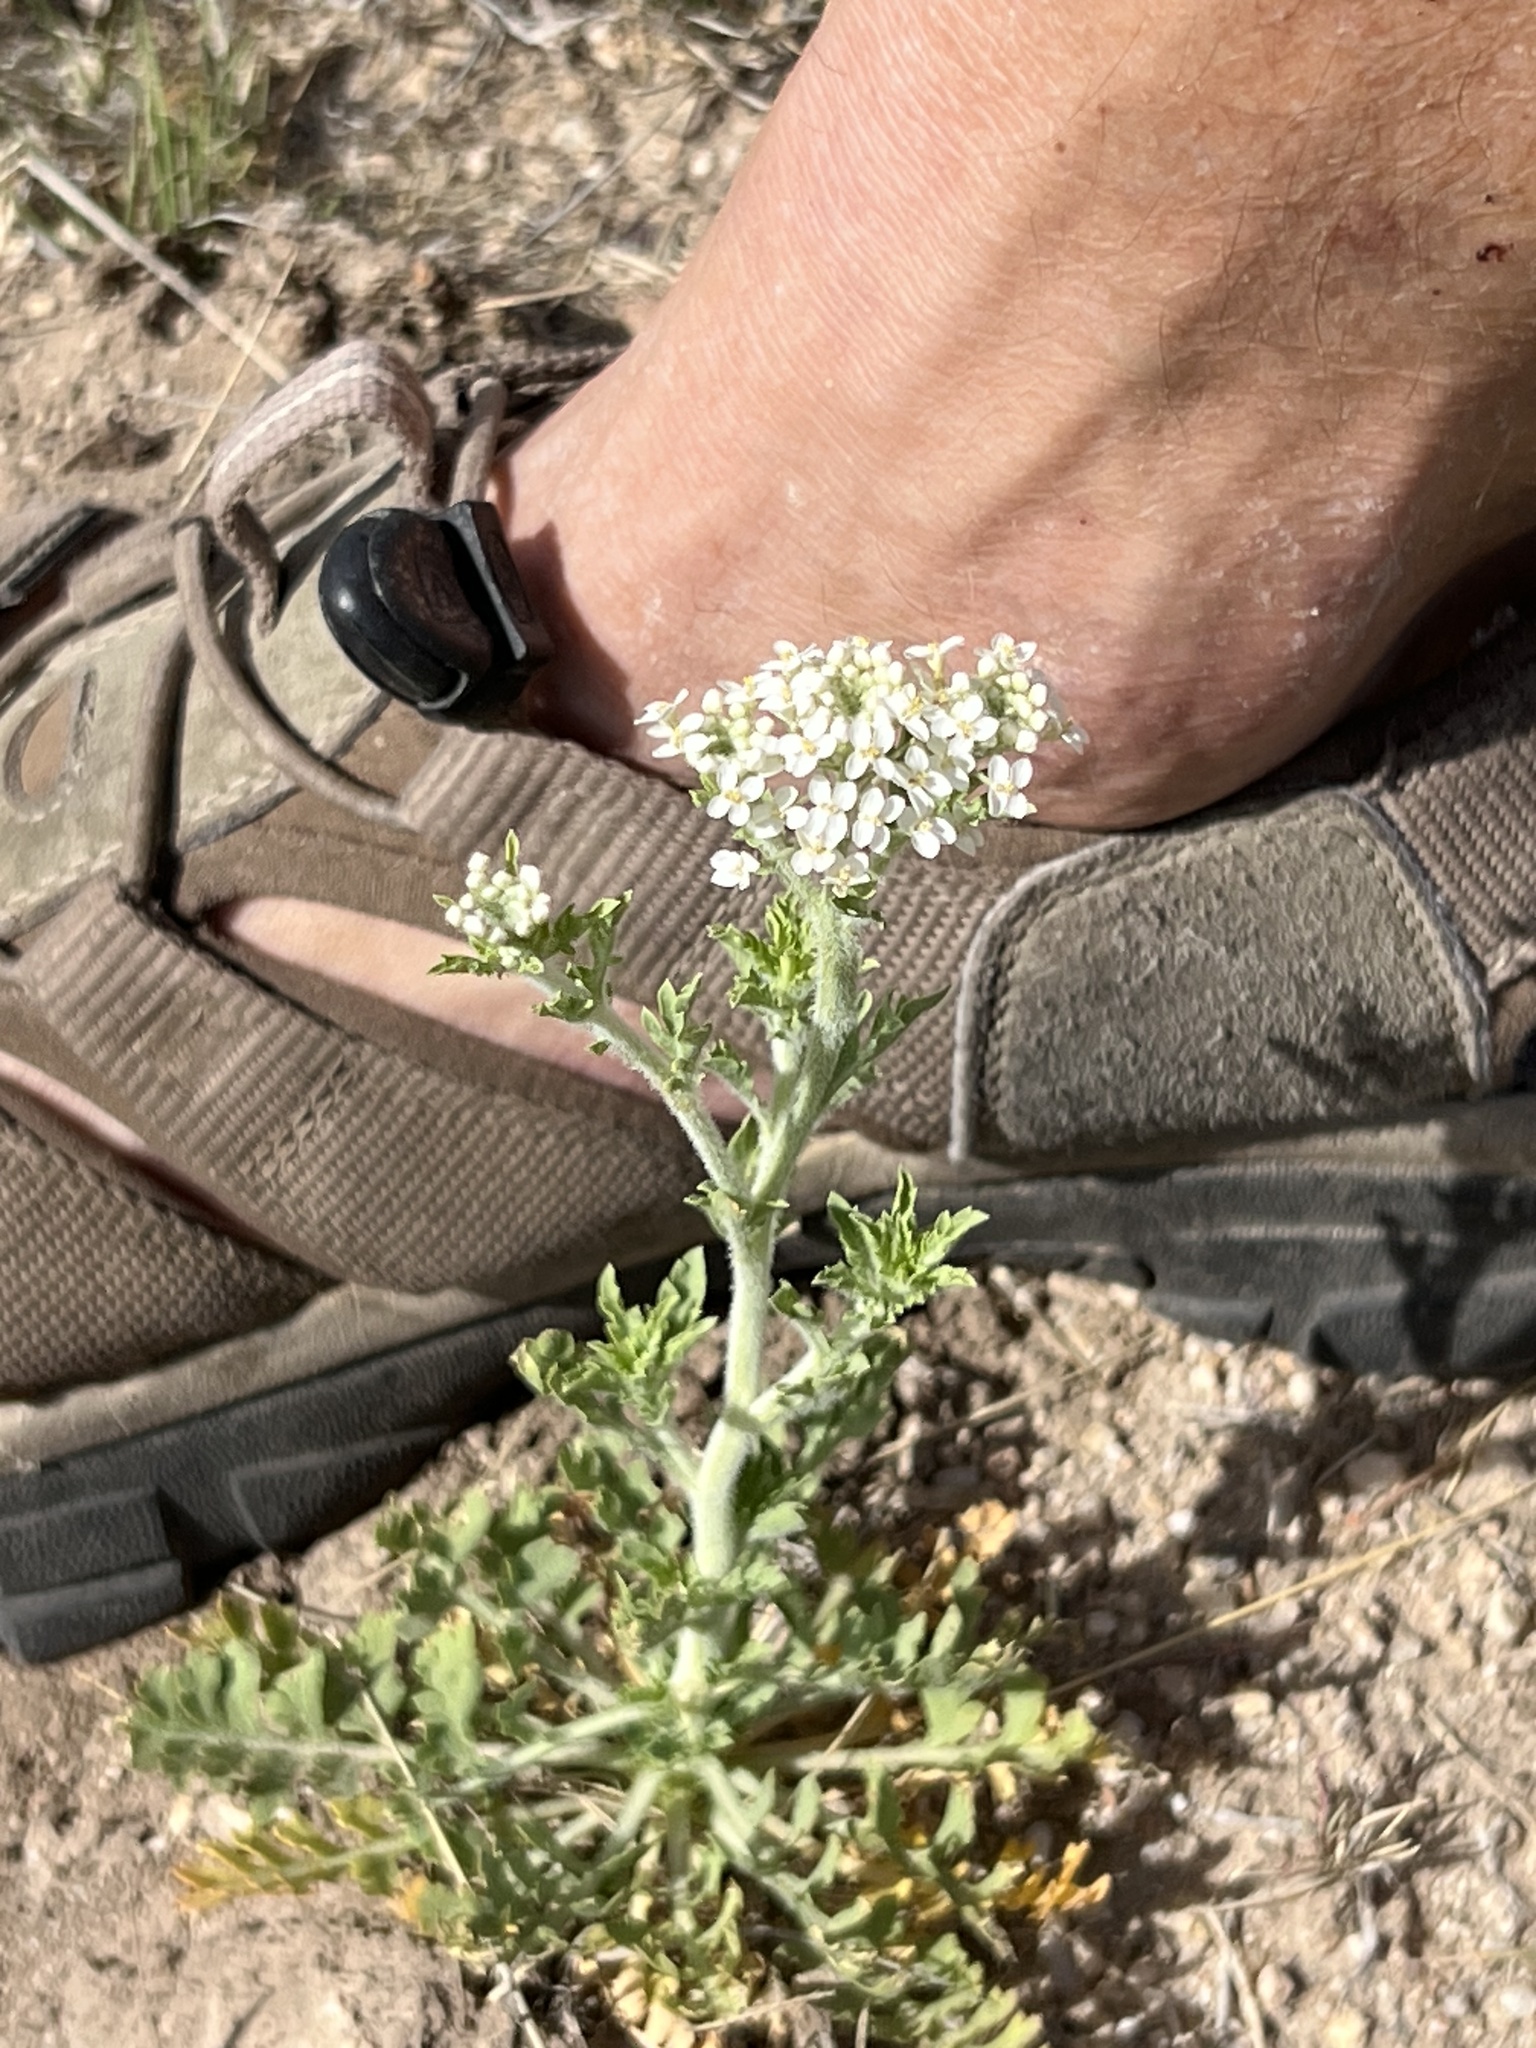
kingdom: Plantae
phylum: Tracheophyta
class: Magnoliopsida
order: Brassicales
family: Brassicaceae
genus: Lepidium
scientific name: Lepidium thurberi
